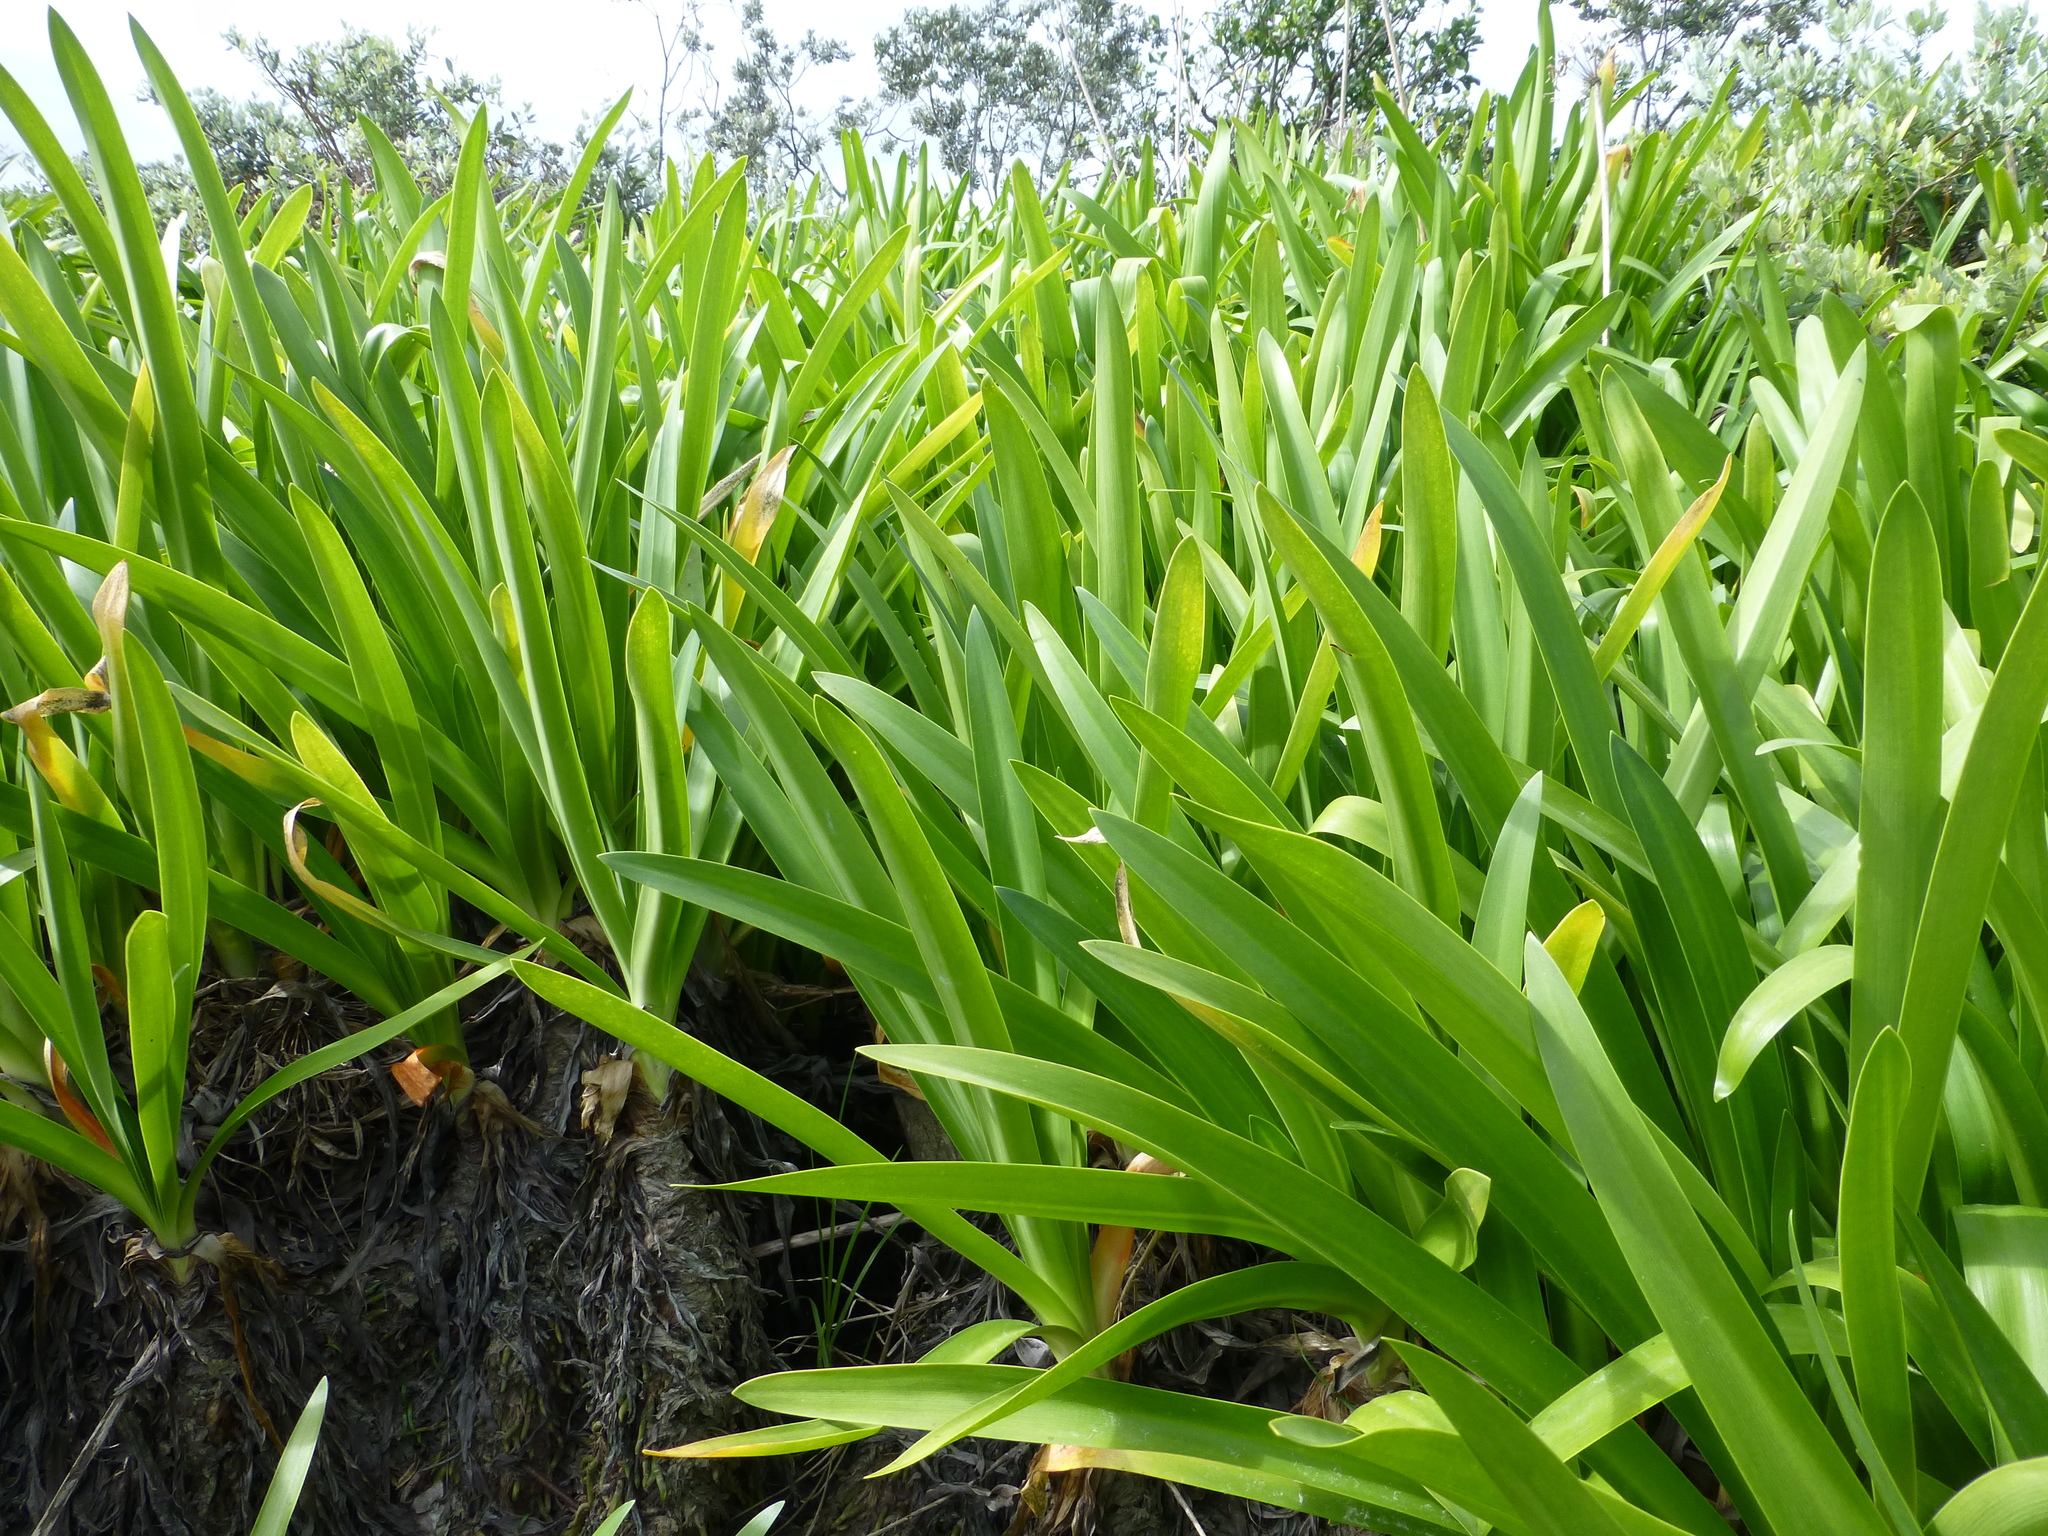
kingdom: Plantae
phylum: Tracheophyta
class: Liliopsida
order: Asparagales
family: Amaryllidaceae
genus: Agapanthus
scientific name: Agapanthus praecox
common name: African-lily
